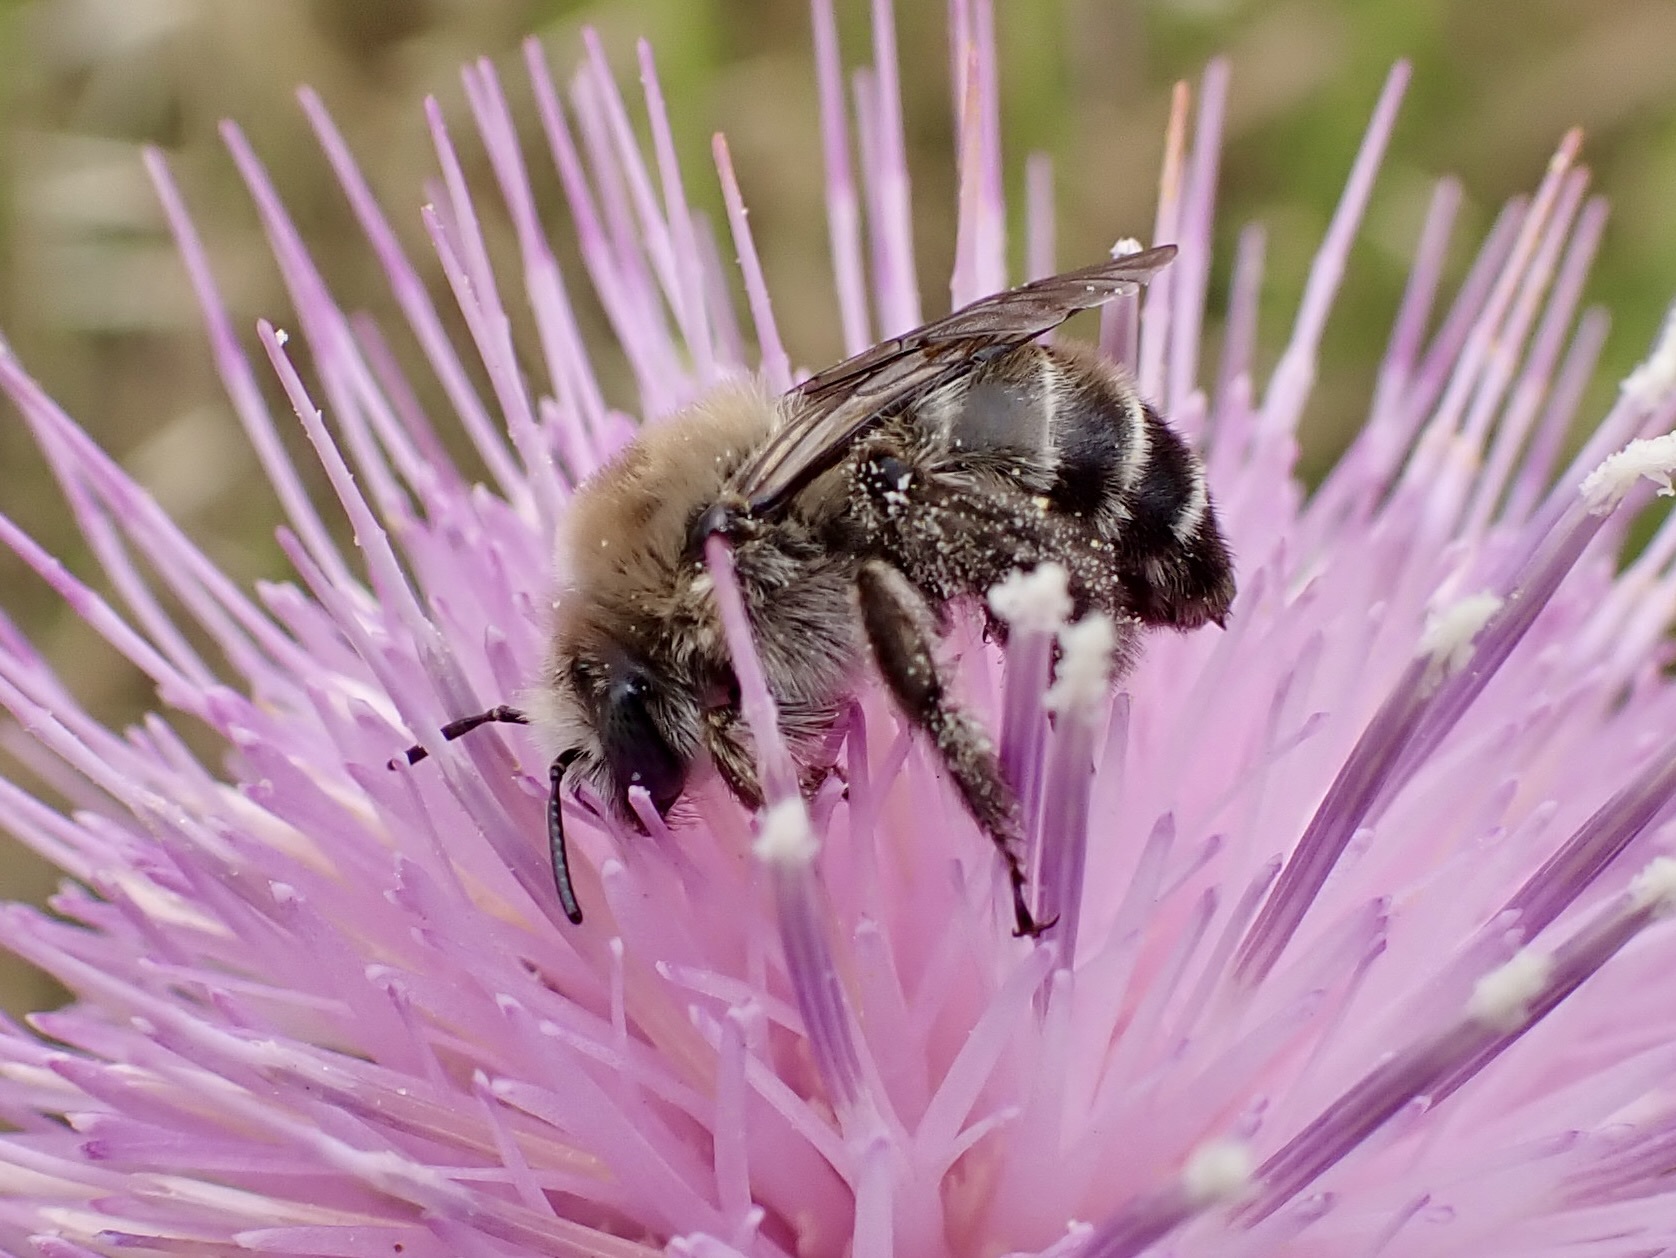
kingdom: Animalia
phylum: Arthropoda
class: Insecta
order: Hymenoptera
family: Apidae
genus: Diadasia
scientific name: Diadasia bituberculata
